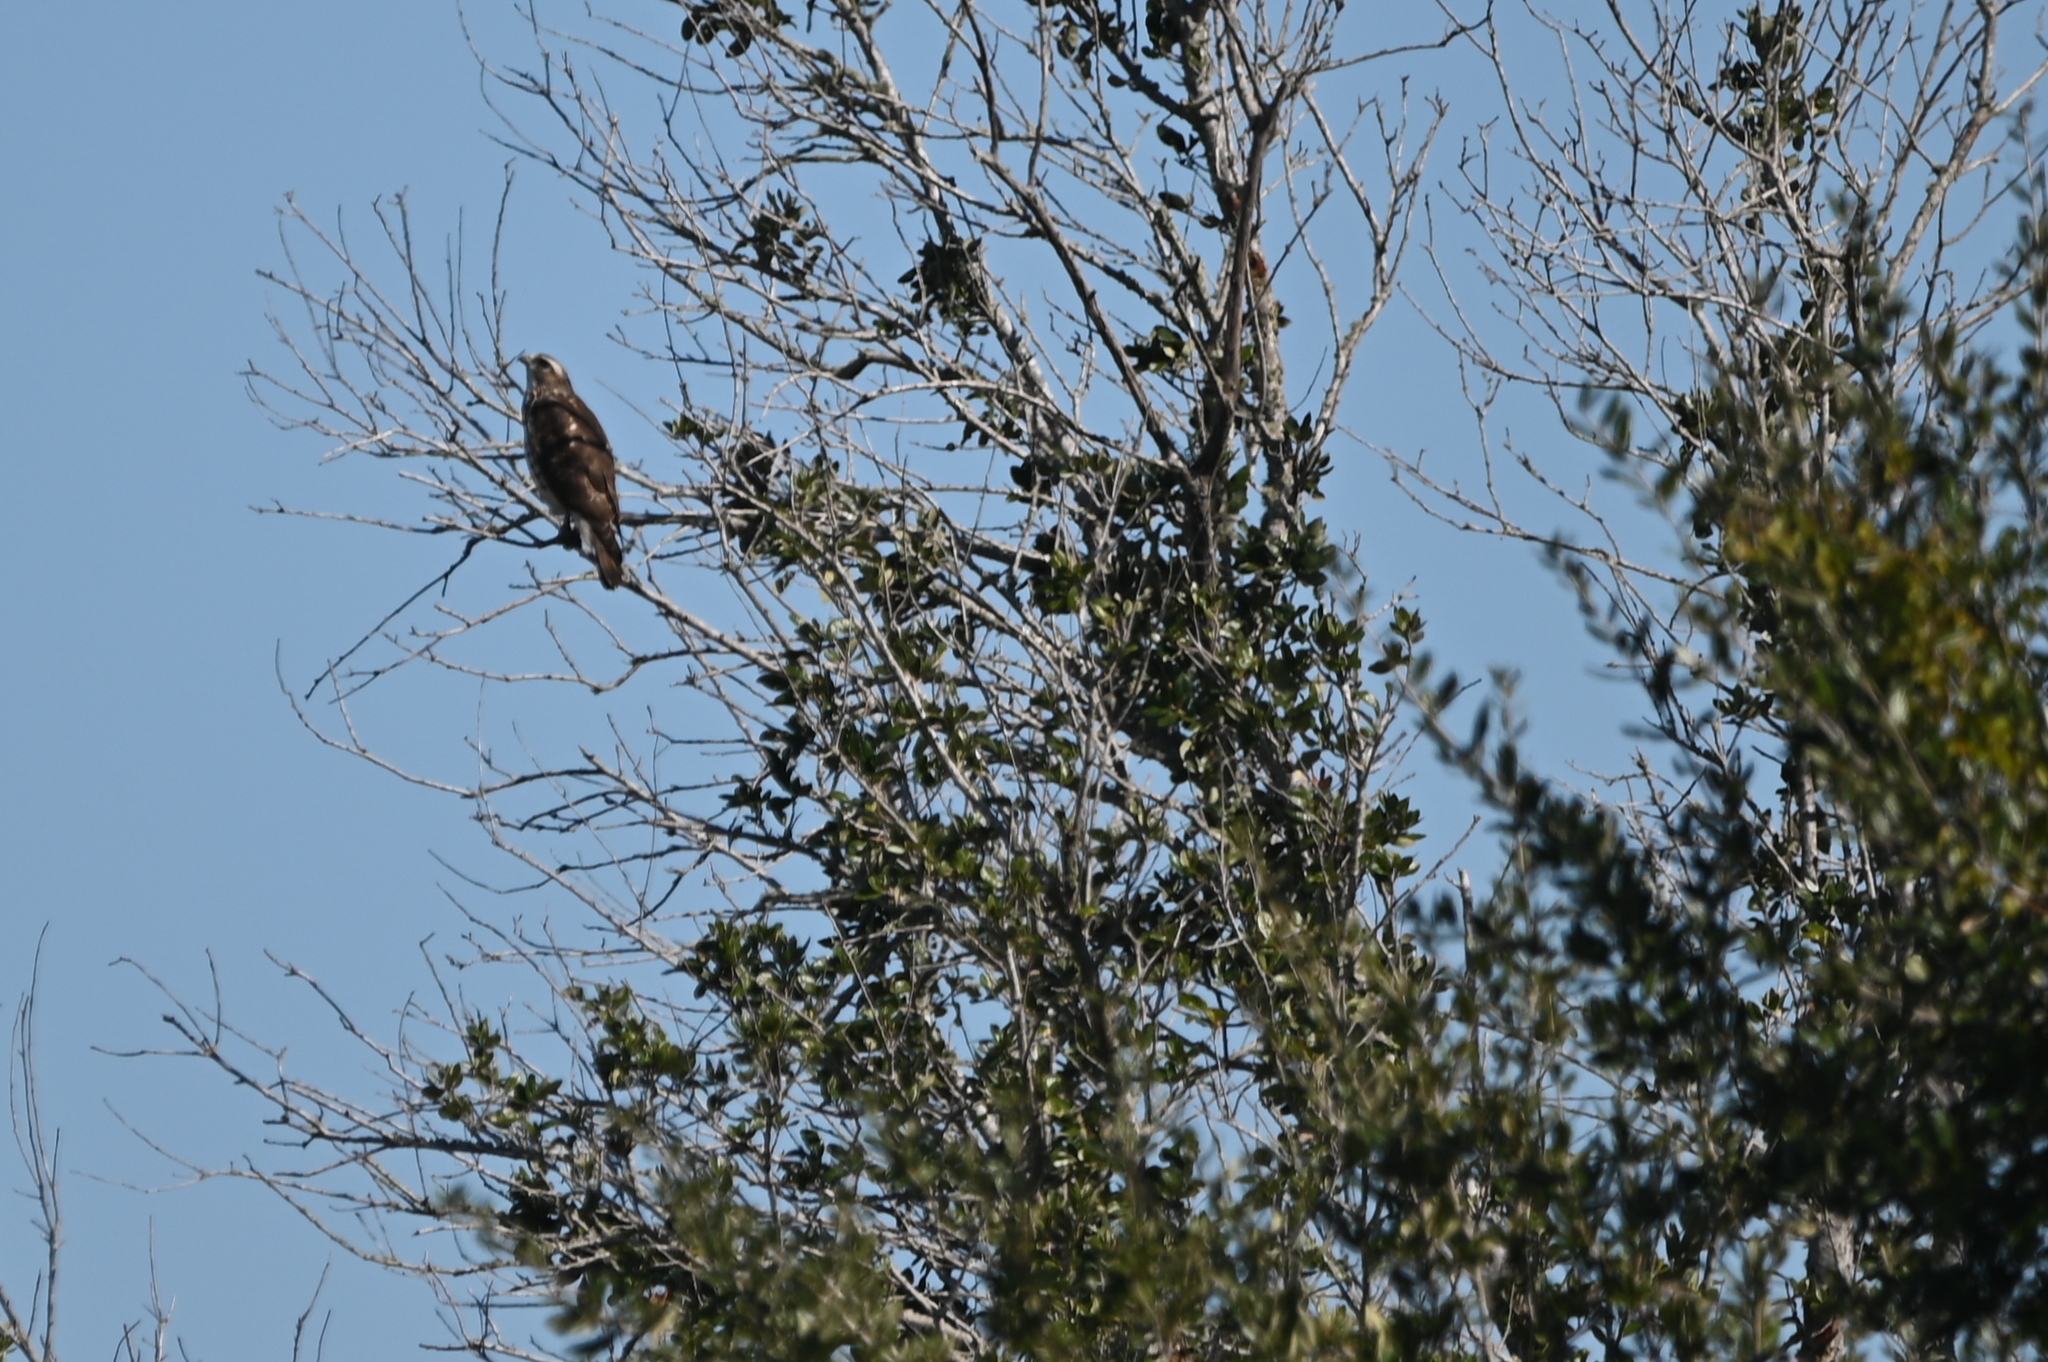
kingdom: Animalia
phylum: Chordata
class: Aves
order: Accipitriformes
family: Accipitridae
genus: Buteo
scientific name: Buteo platypterus
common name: Broad-winged hawk
